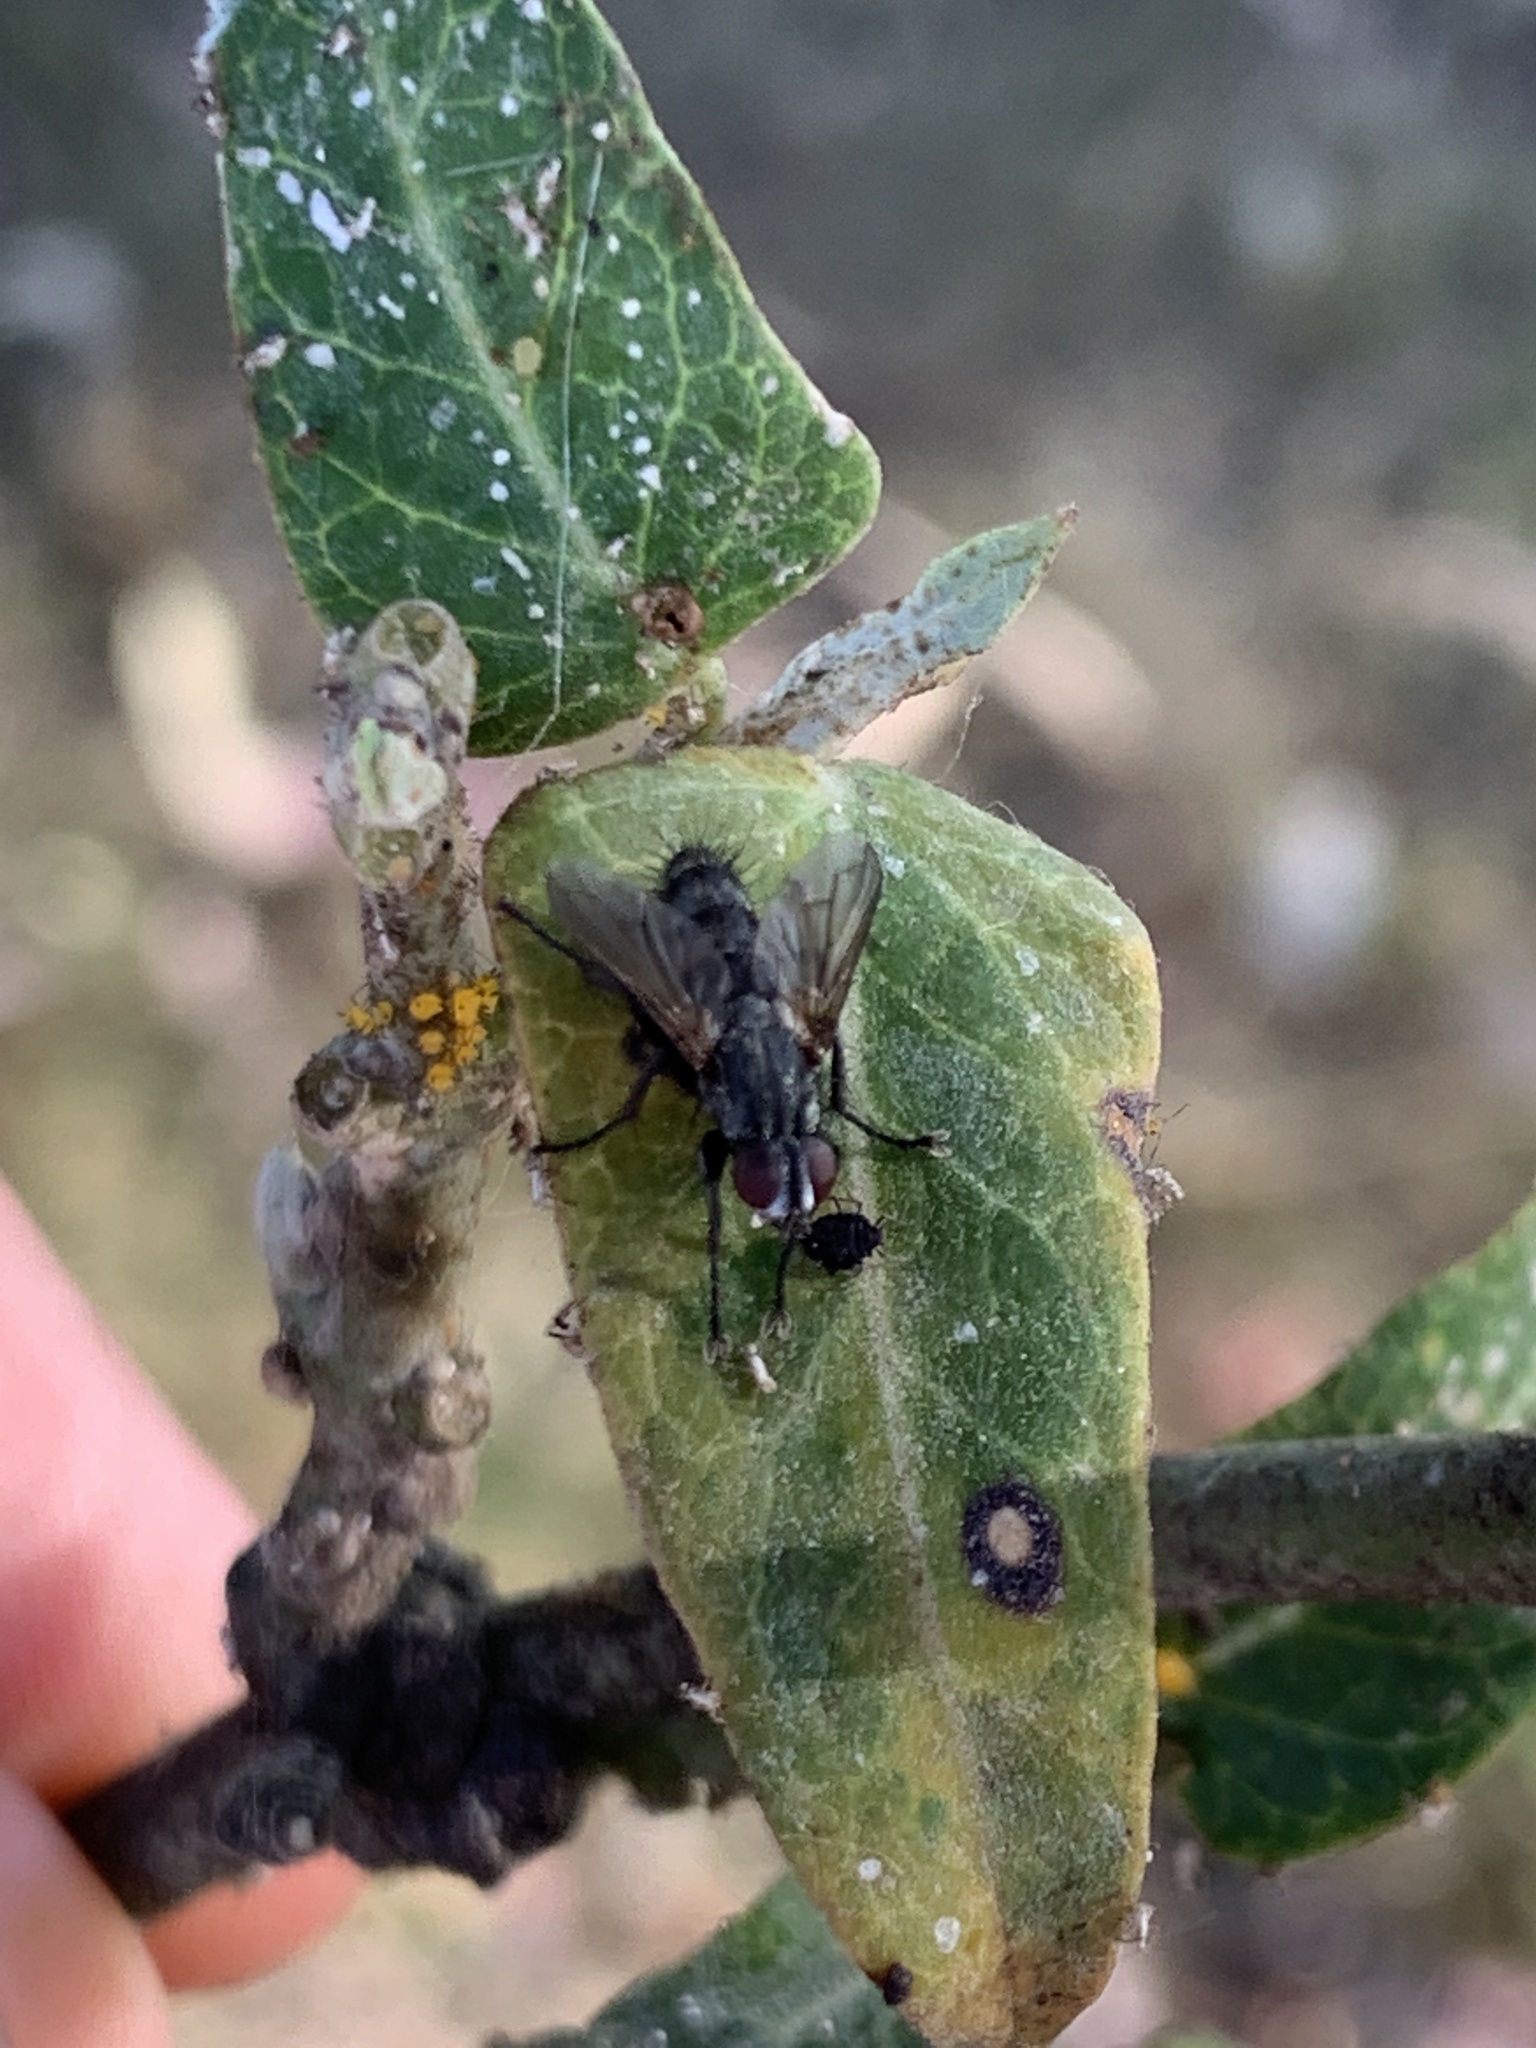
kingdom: Animalia
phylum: Arthropoda
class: Insecta
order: Diptera
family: Calliphoridae
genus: Stevenia
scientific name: Stevenia deceptoria
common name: Grizzled woodlouse-fly
